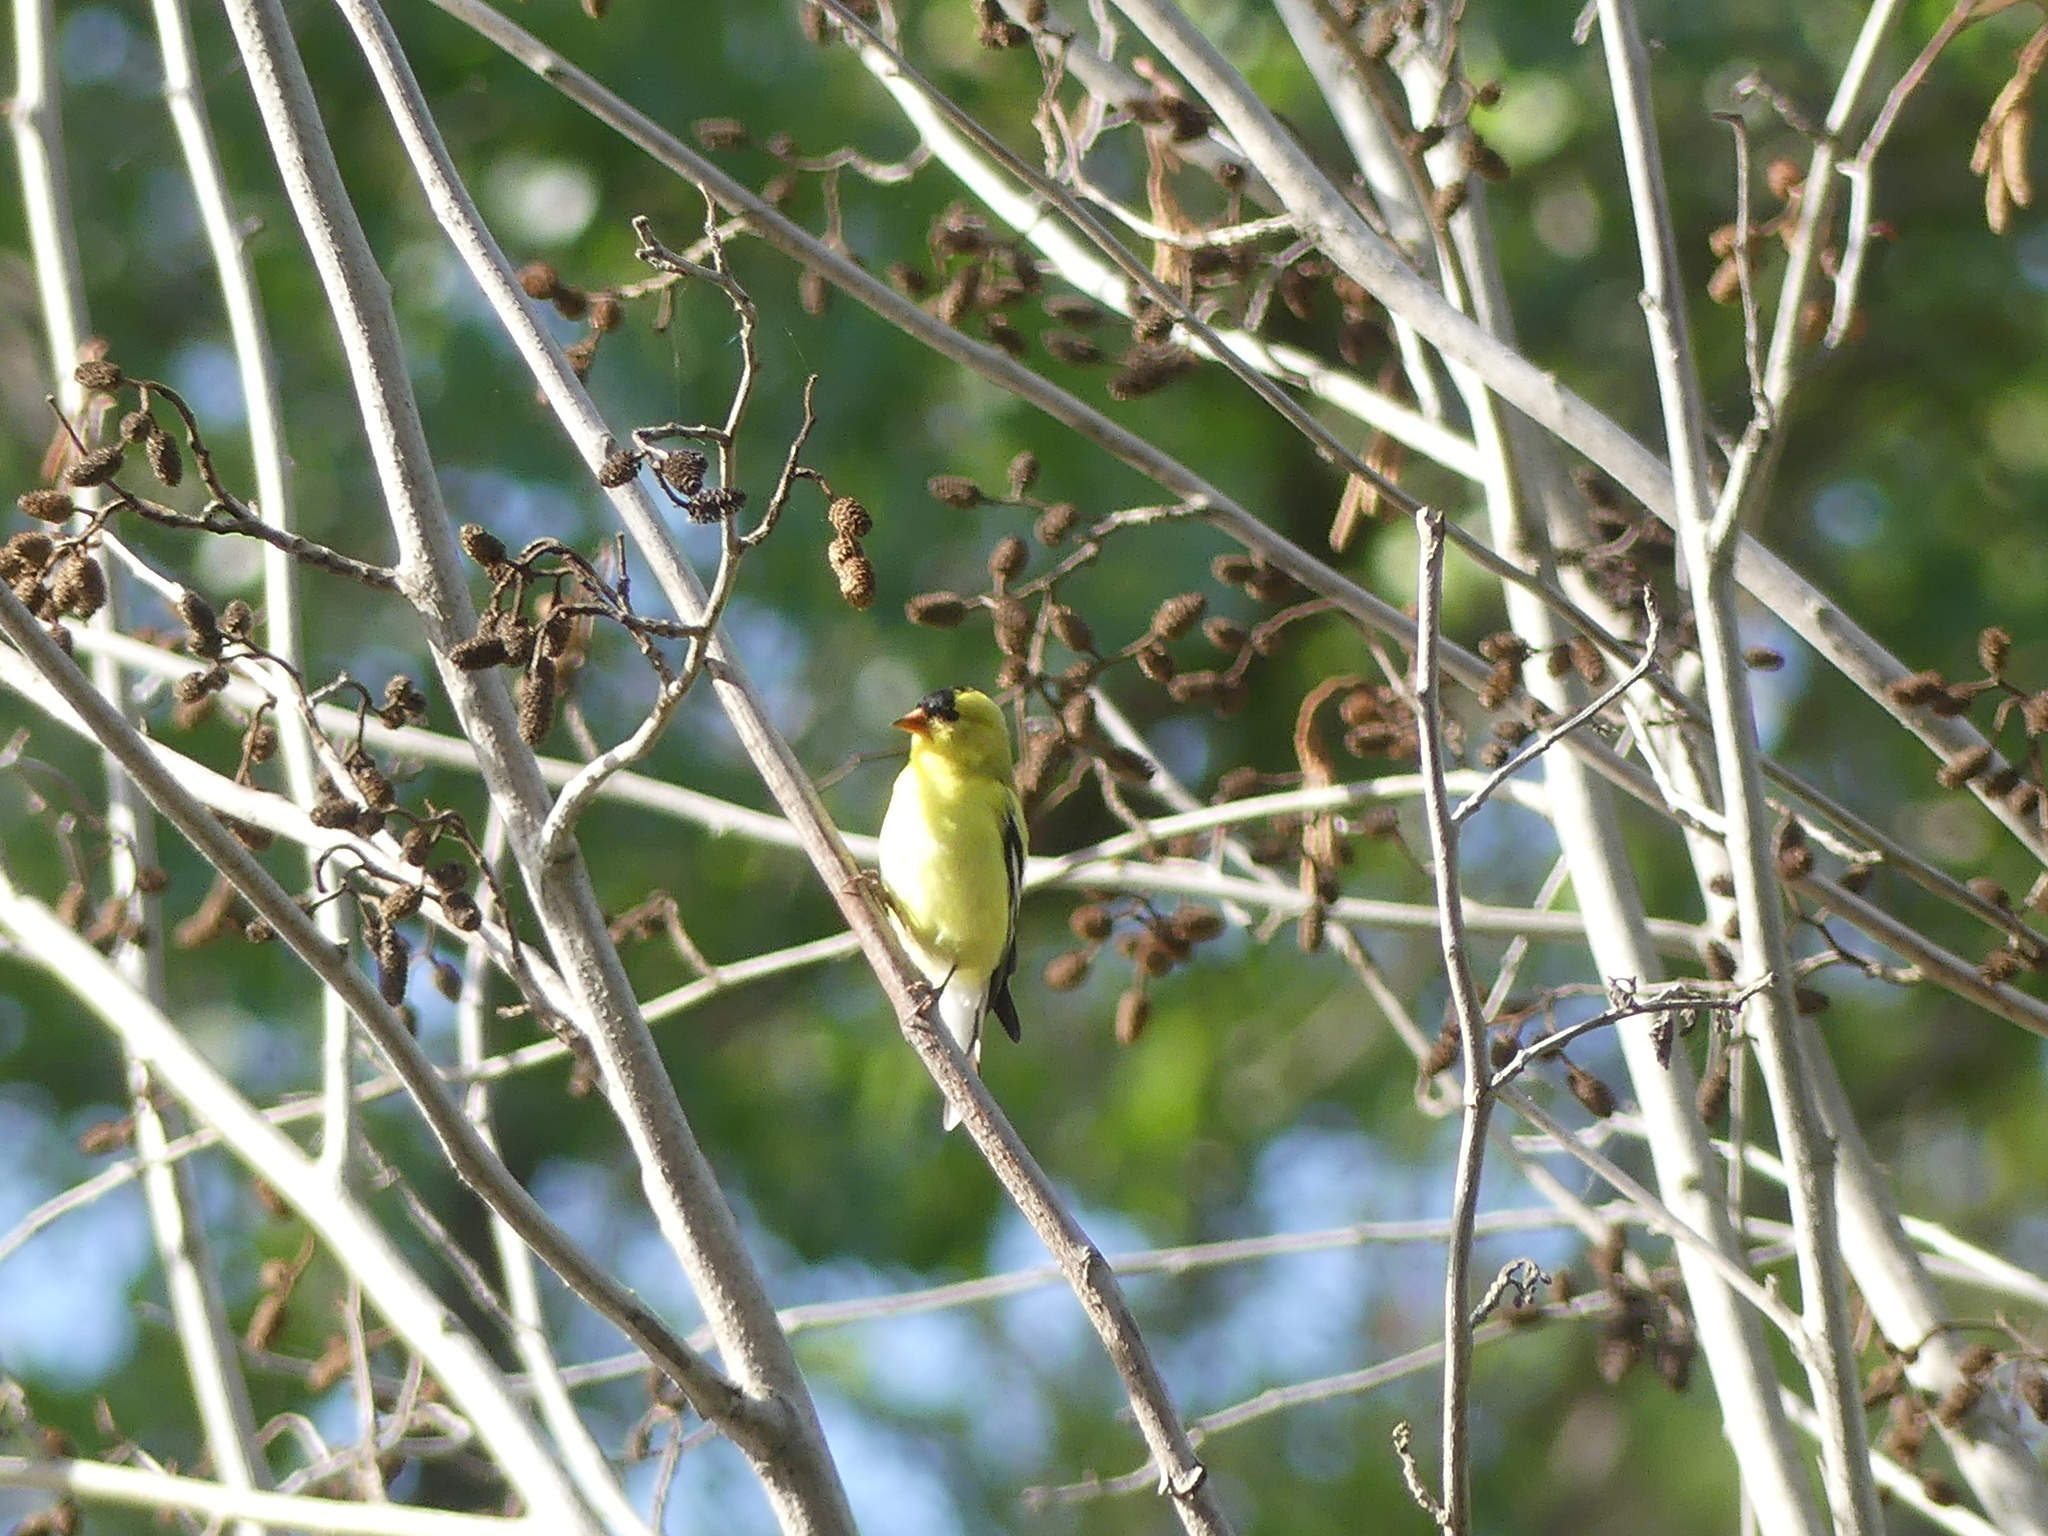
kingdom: Animalia
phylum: Chordata
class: Aves
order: Passeriformes
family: Fringillidae
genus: Spinus
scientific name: Spinus tristis
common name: American goldfinch
